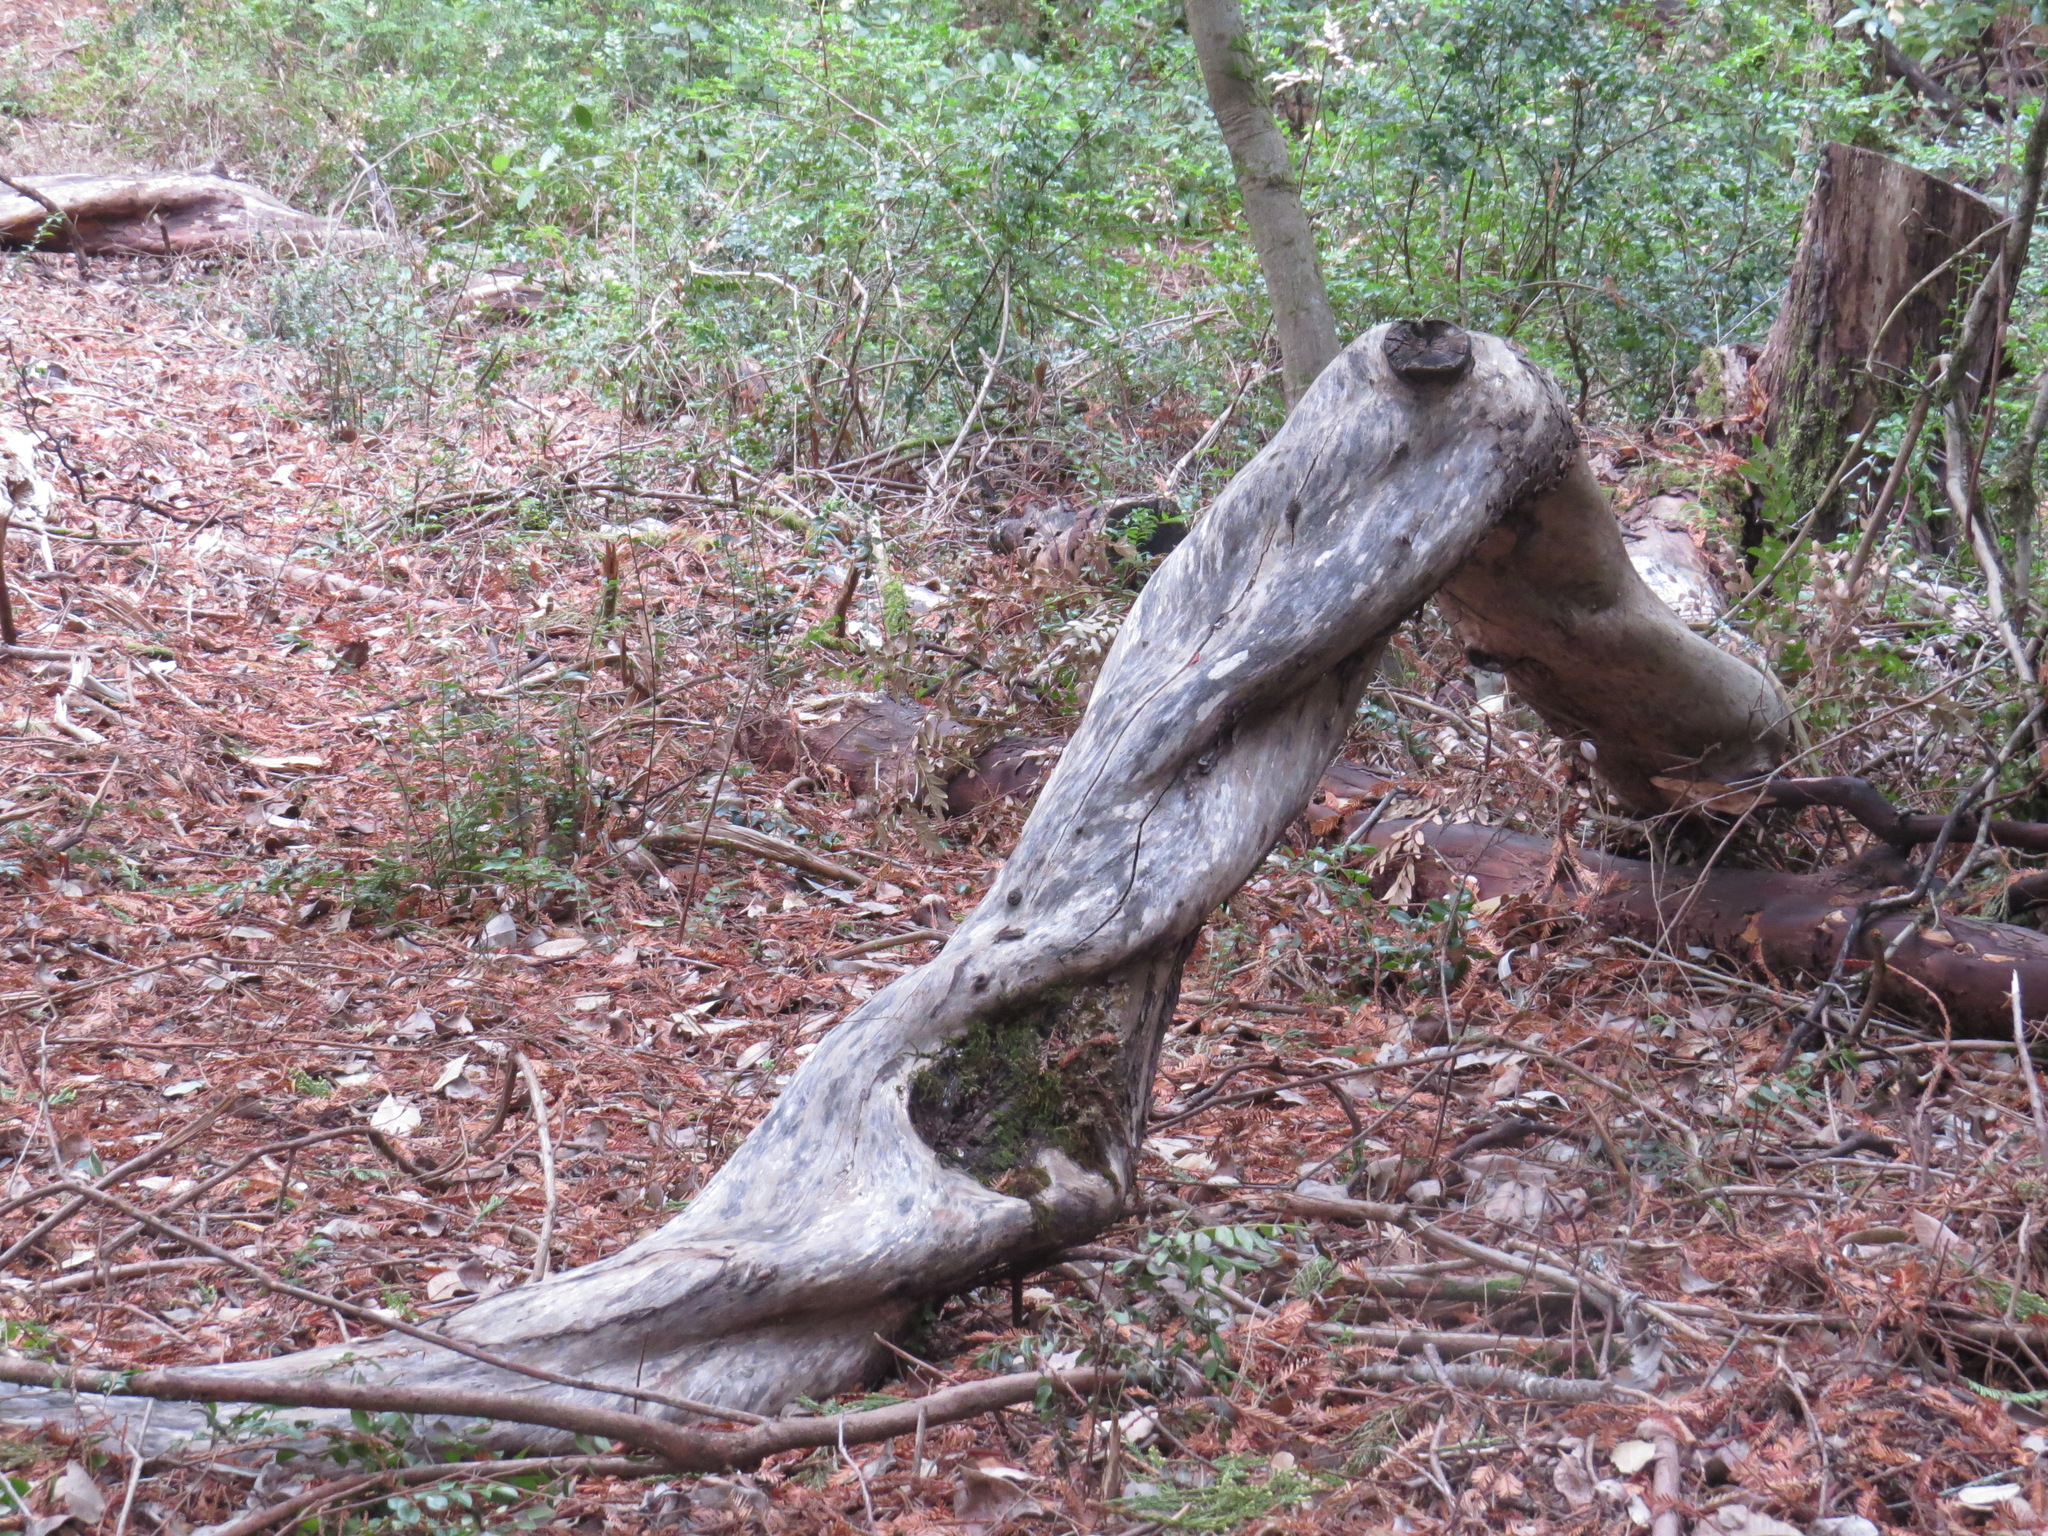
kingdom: Plantae
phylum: Tracheophyta
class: Magnoliopsida
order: Ericales
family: Ericaceae
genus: Arbutus
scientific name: Arbutus menziesii
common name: Pacific madrone
